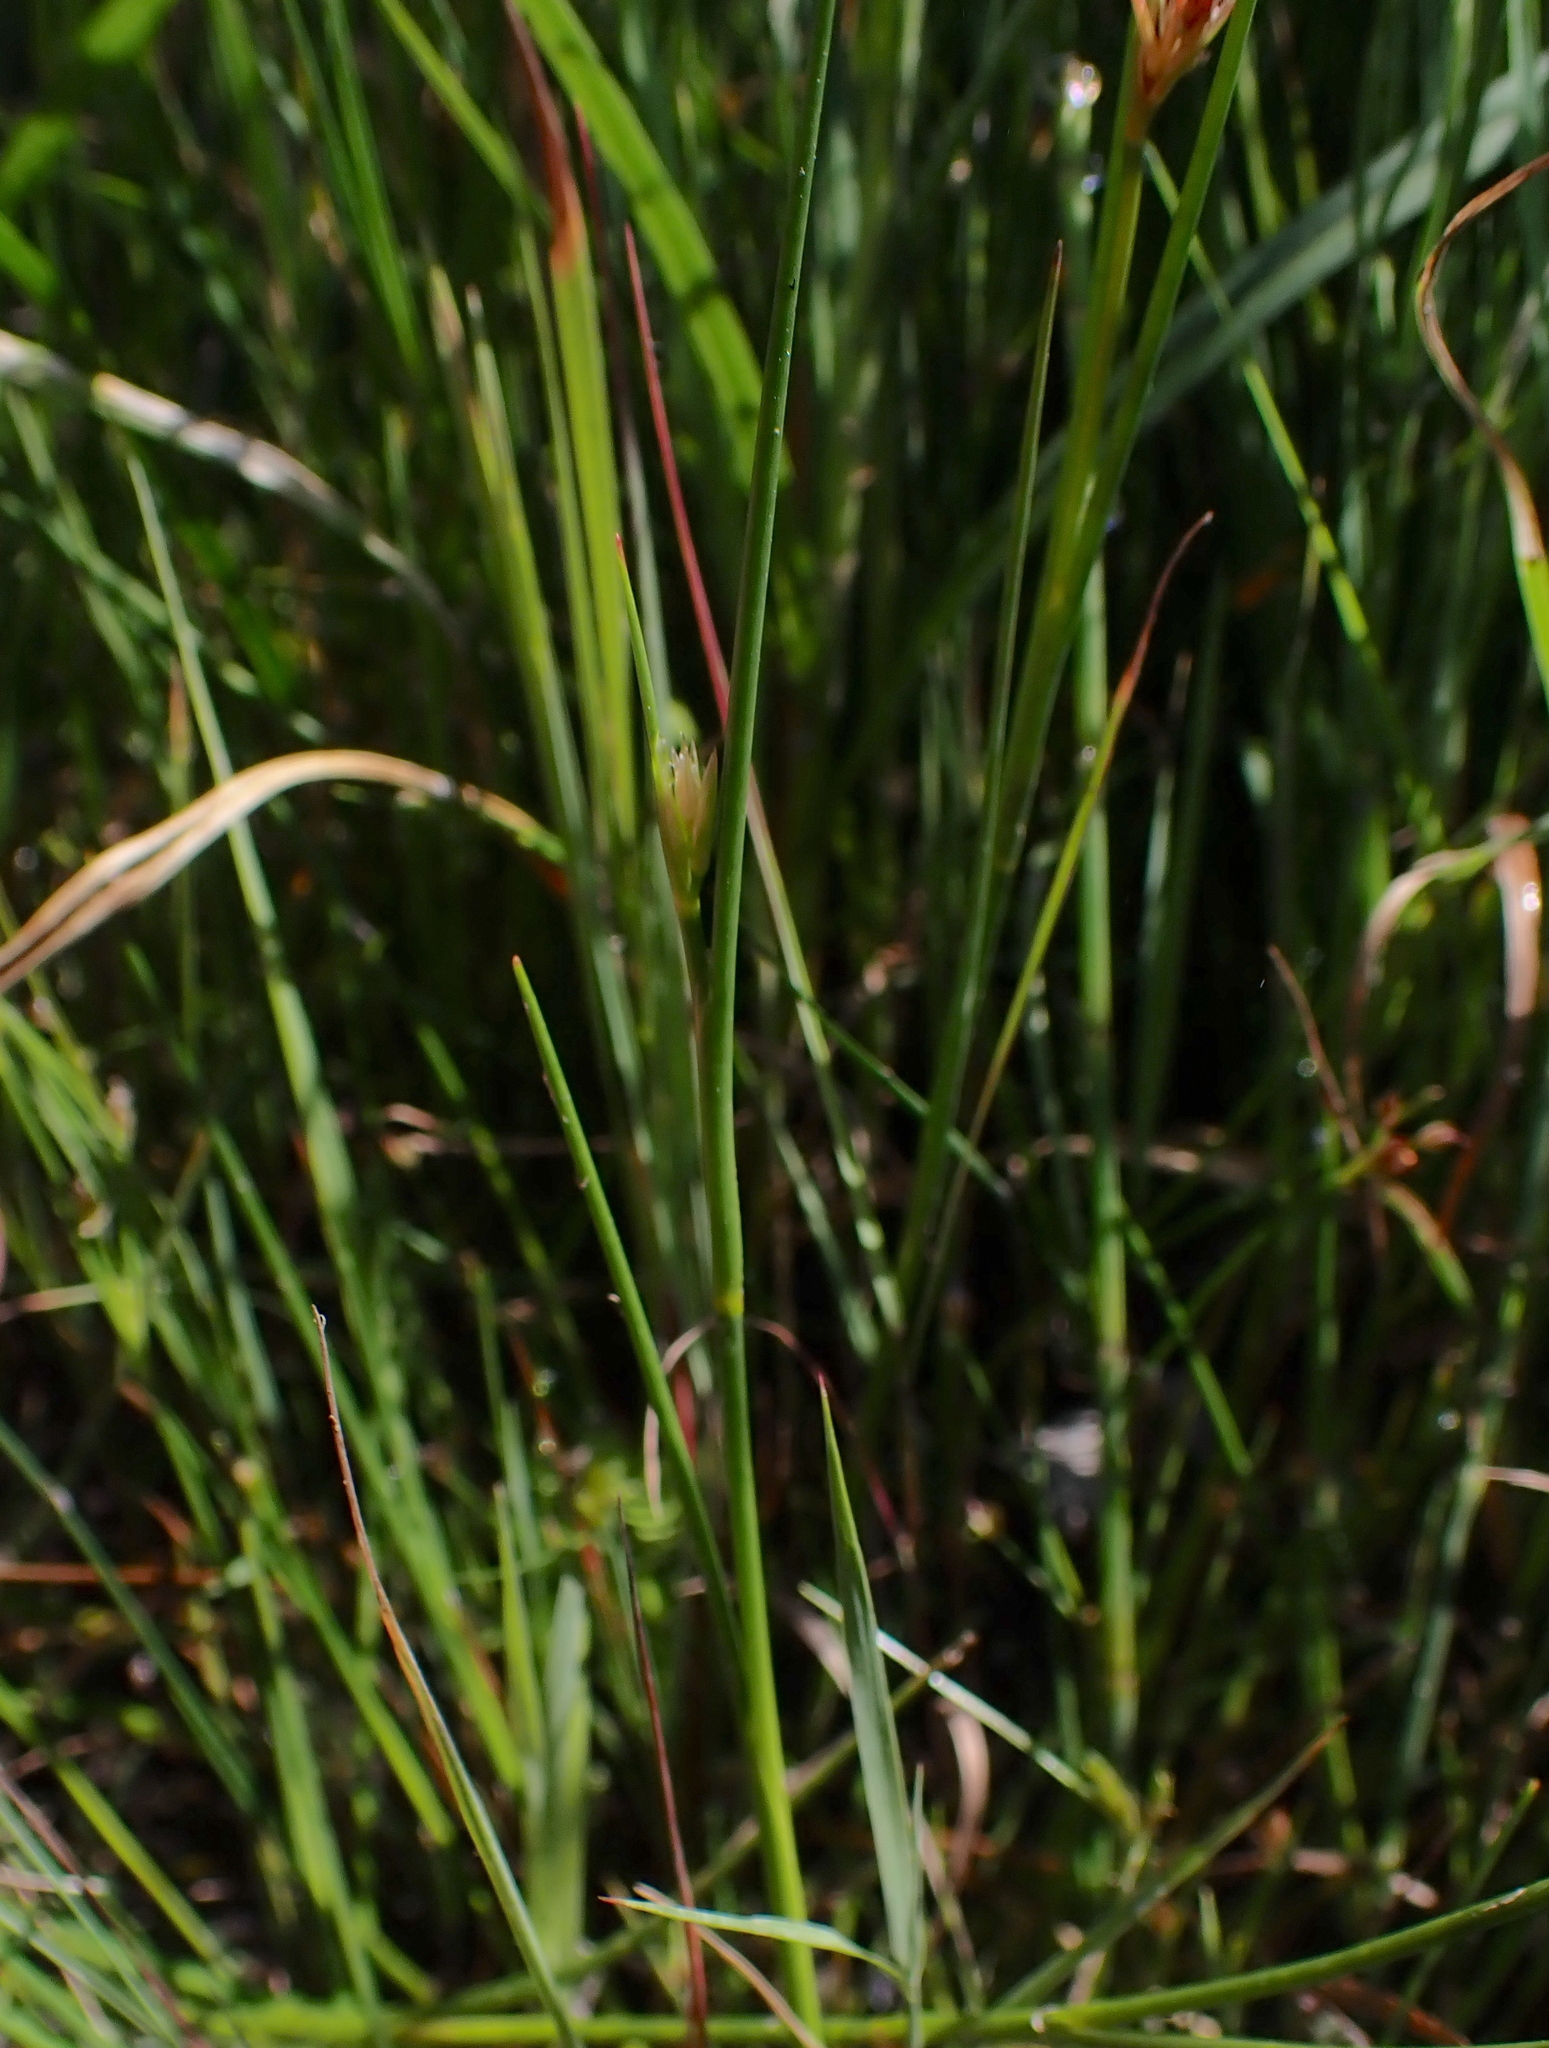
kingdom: Plantae
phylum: Tracheophyta
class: Liliopsida
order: Poales
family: Juncaceae
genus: Juncus
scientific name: Juncus articulatus
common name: Jointed rush
